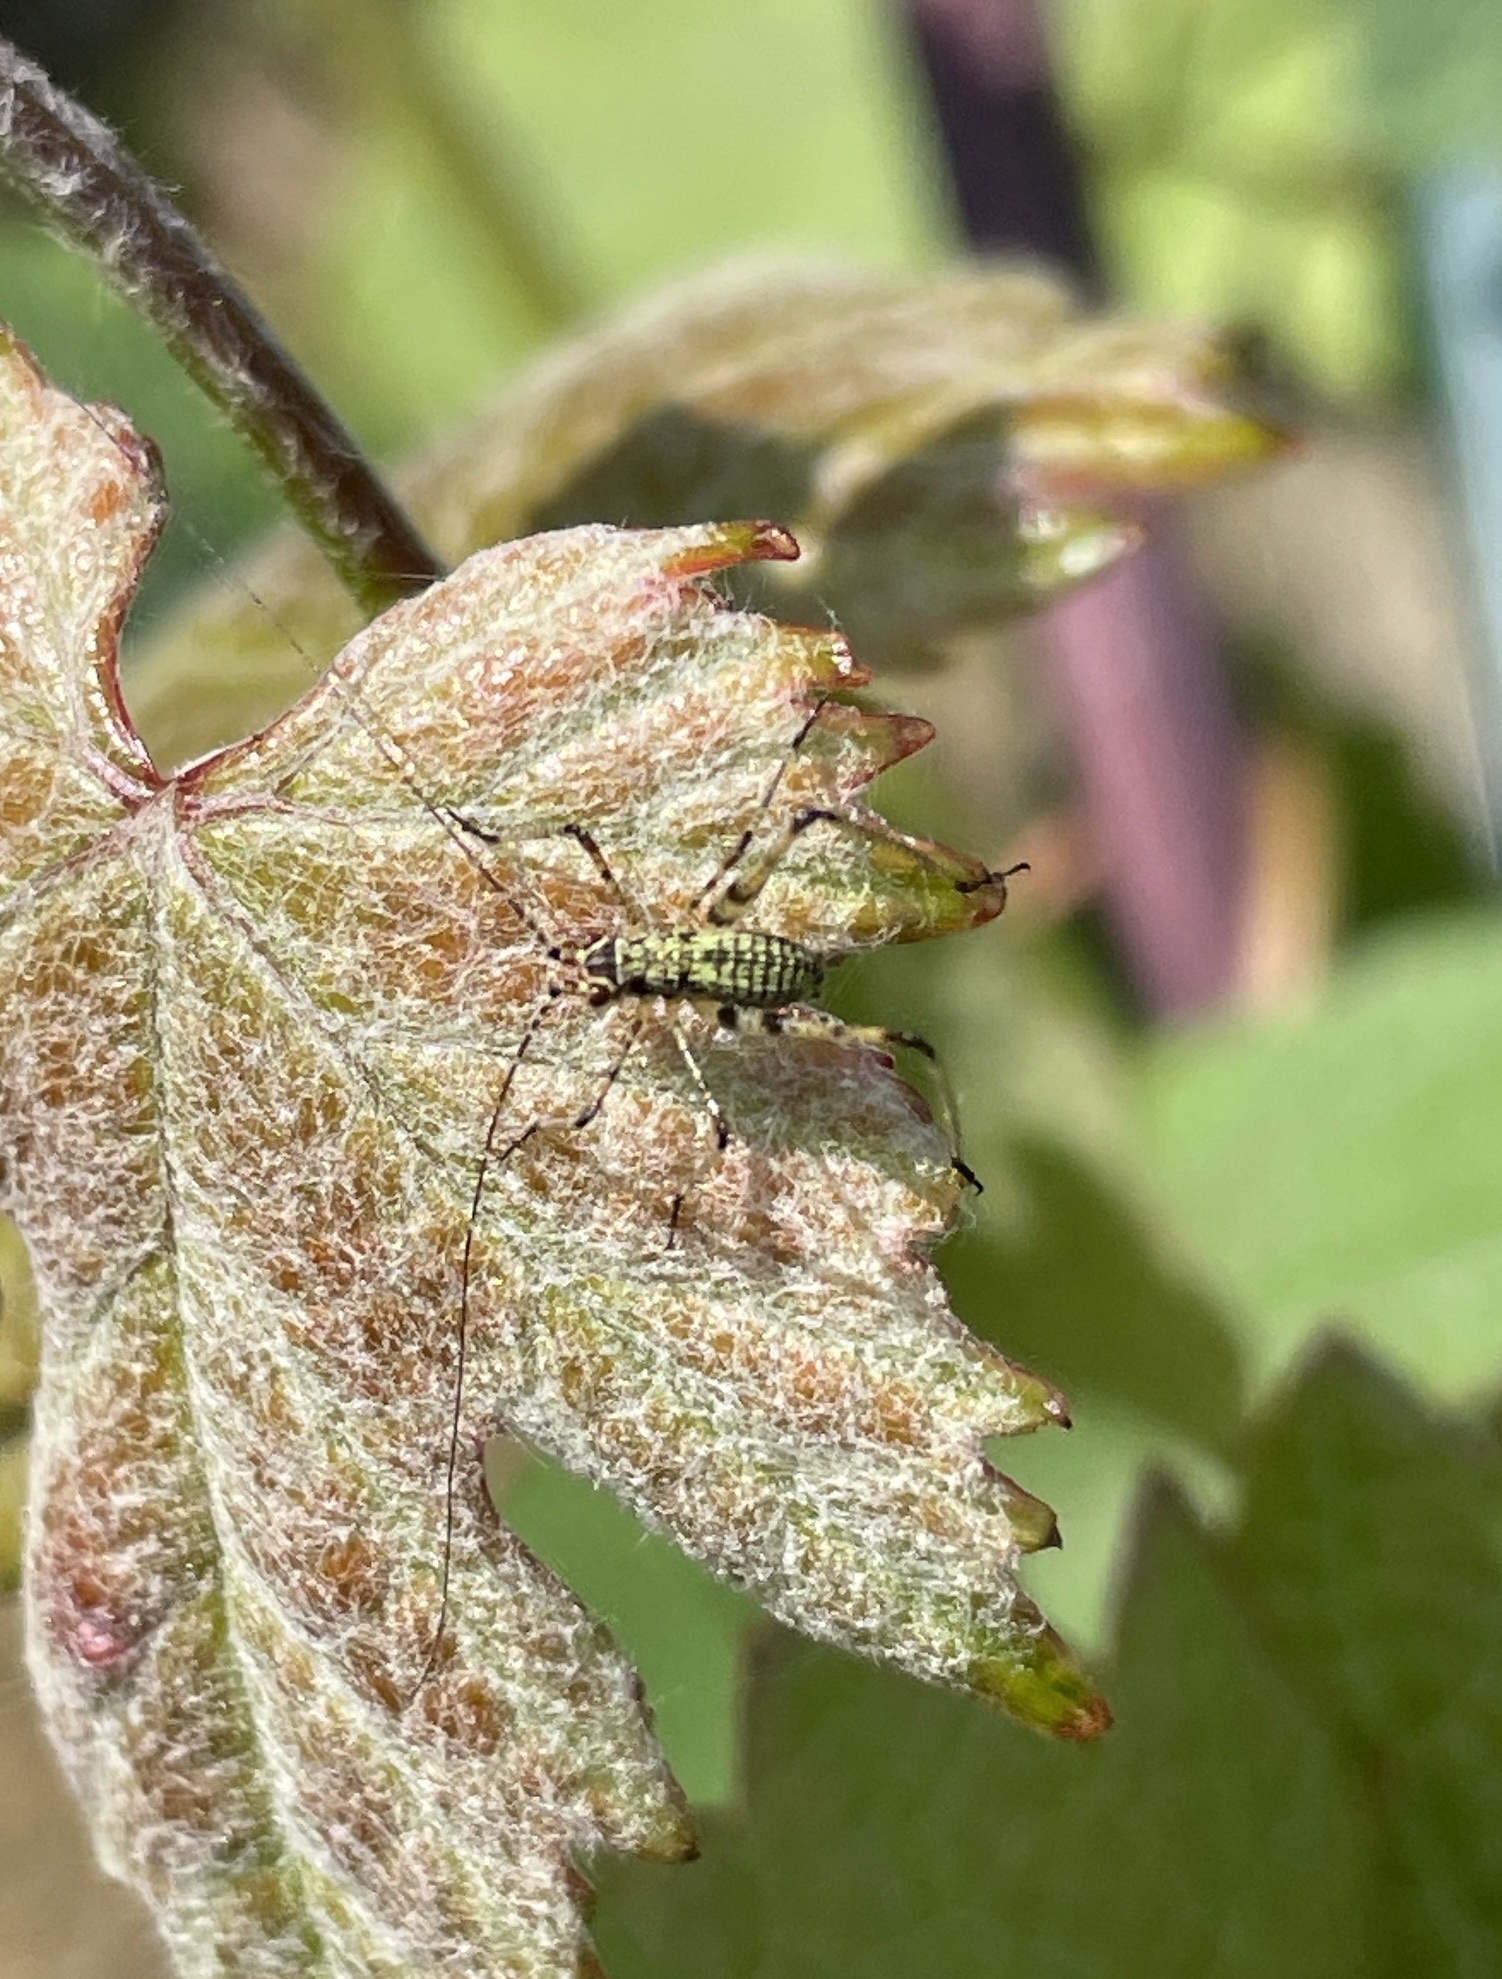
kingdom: Animalia
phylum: Arthropoda
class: Insecta
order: Orthoptera
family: Tettigoniidae
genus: Phaneroptera
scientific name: Phaneroptera nana
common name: Southern sickle bush-cricket
